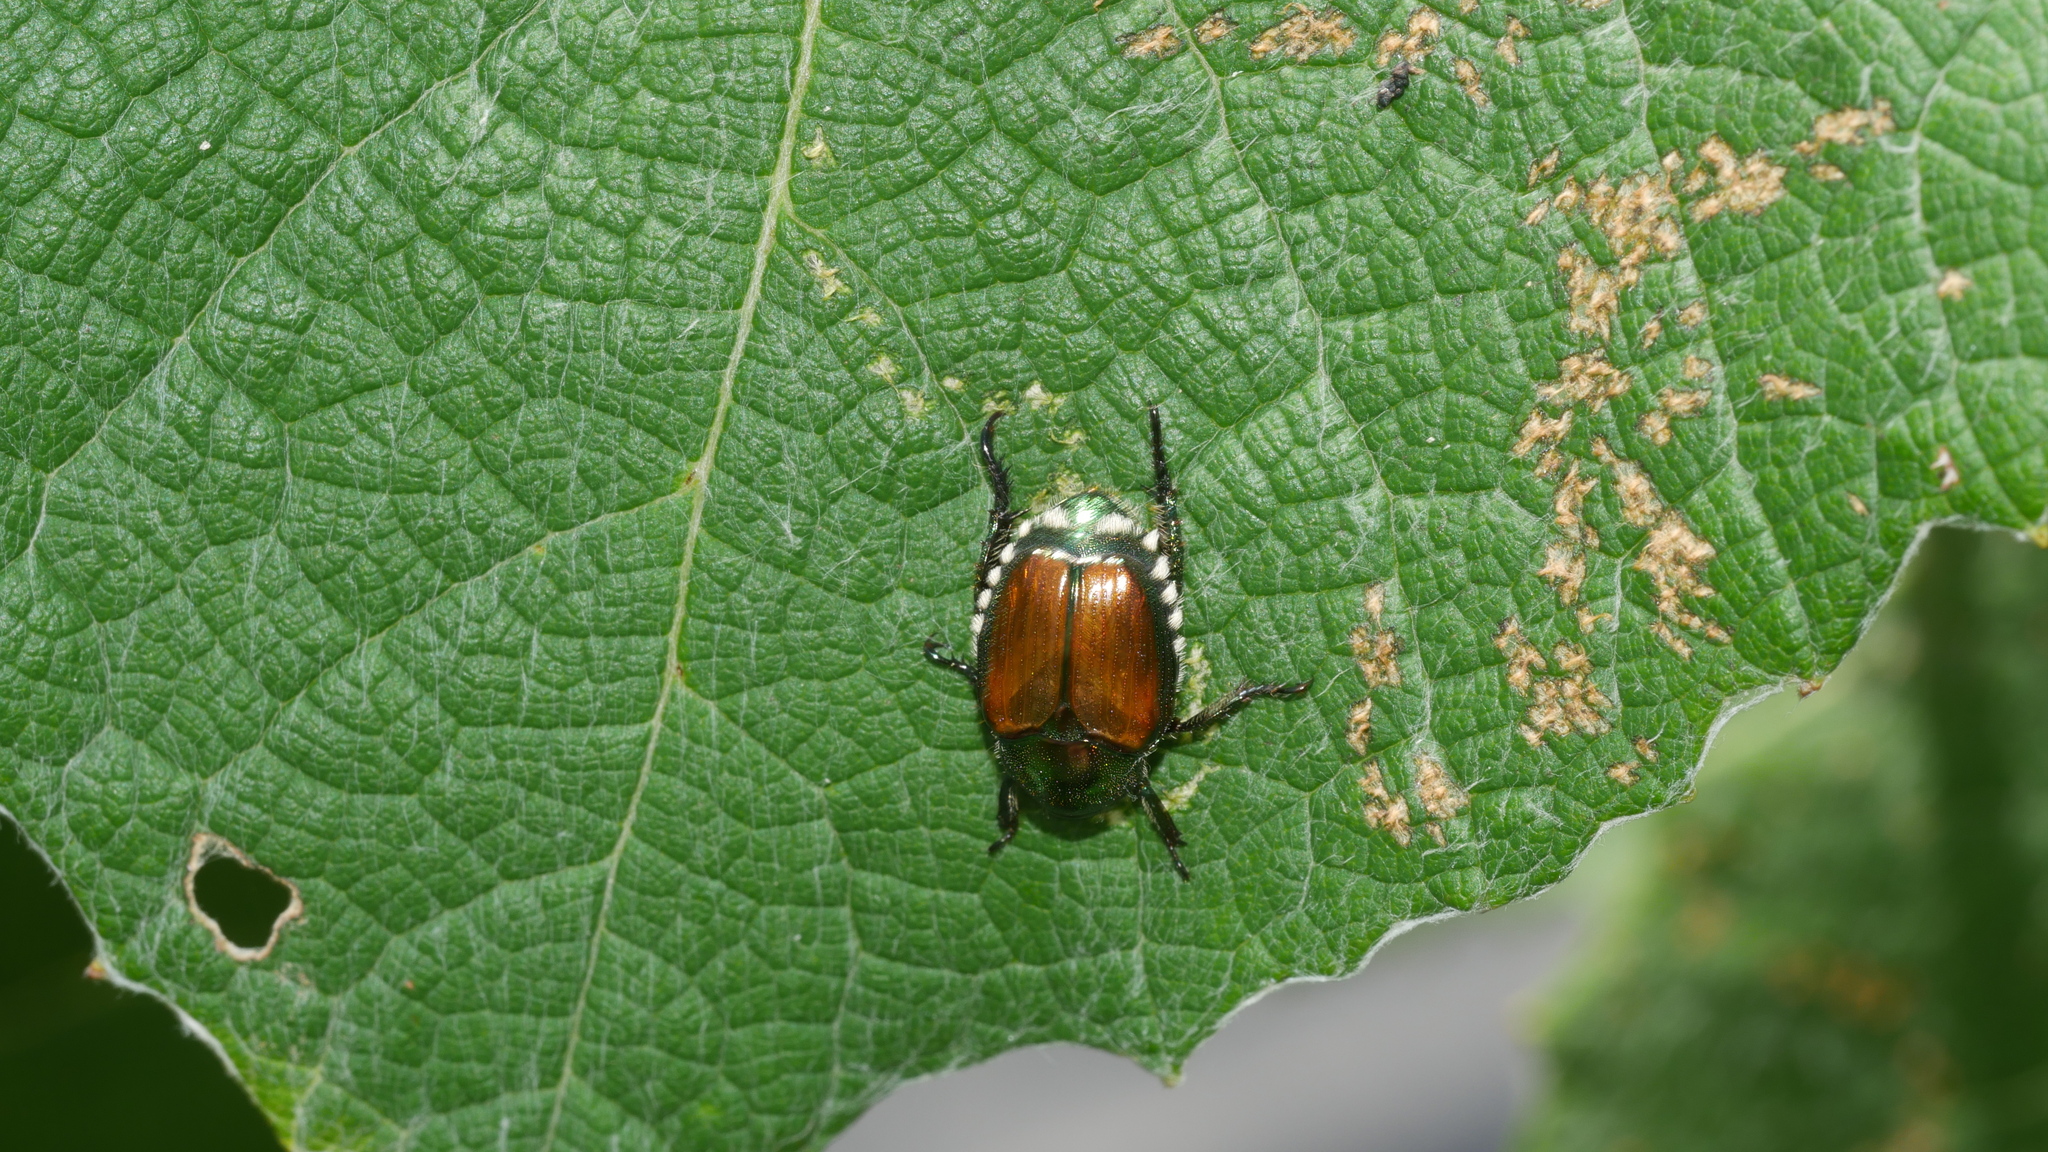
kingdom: Animalia
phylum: Arthropoda
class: Insecta
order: Coleoptera
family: Scarabaeidae
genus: Popillia
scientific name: Popillia japonica
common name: Japanese beetle
